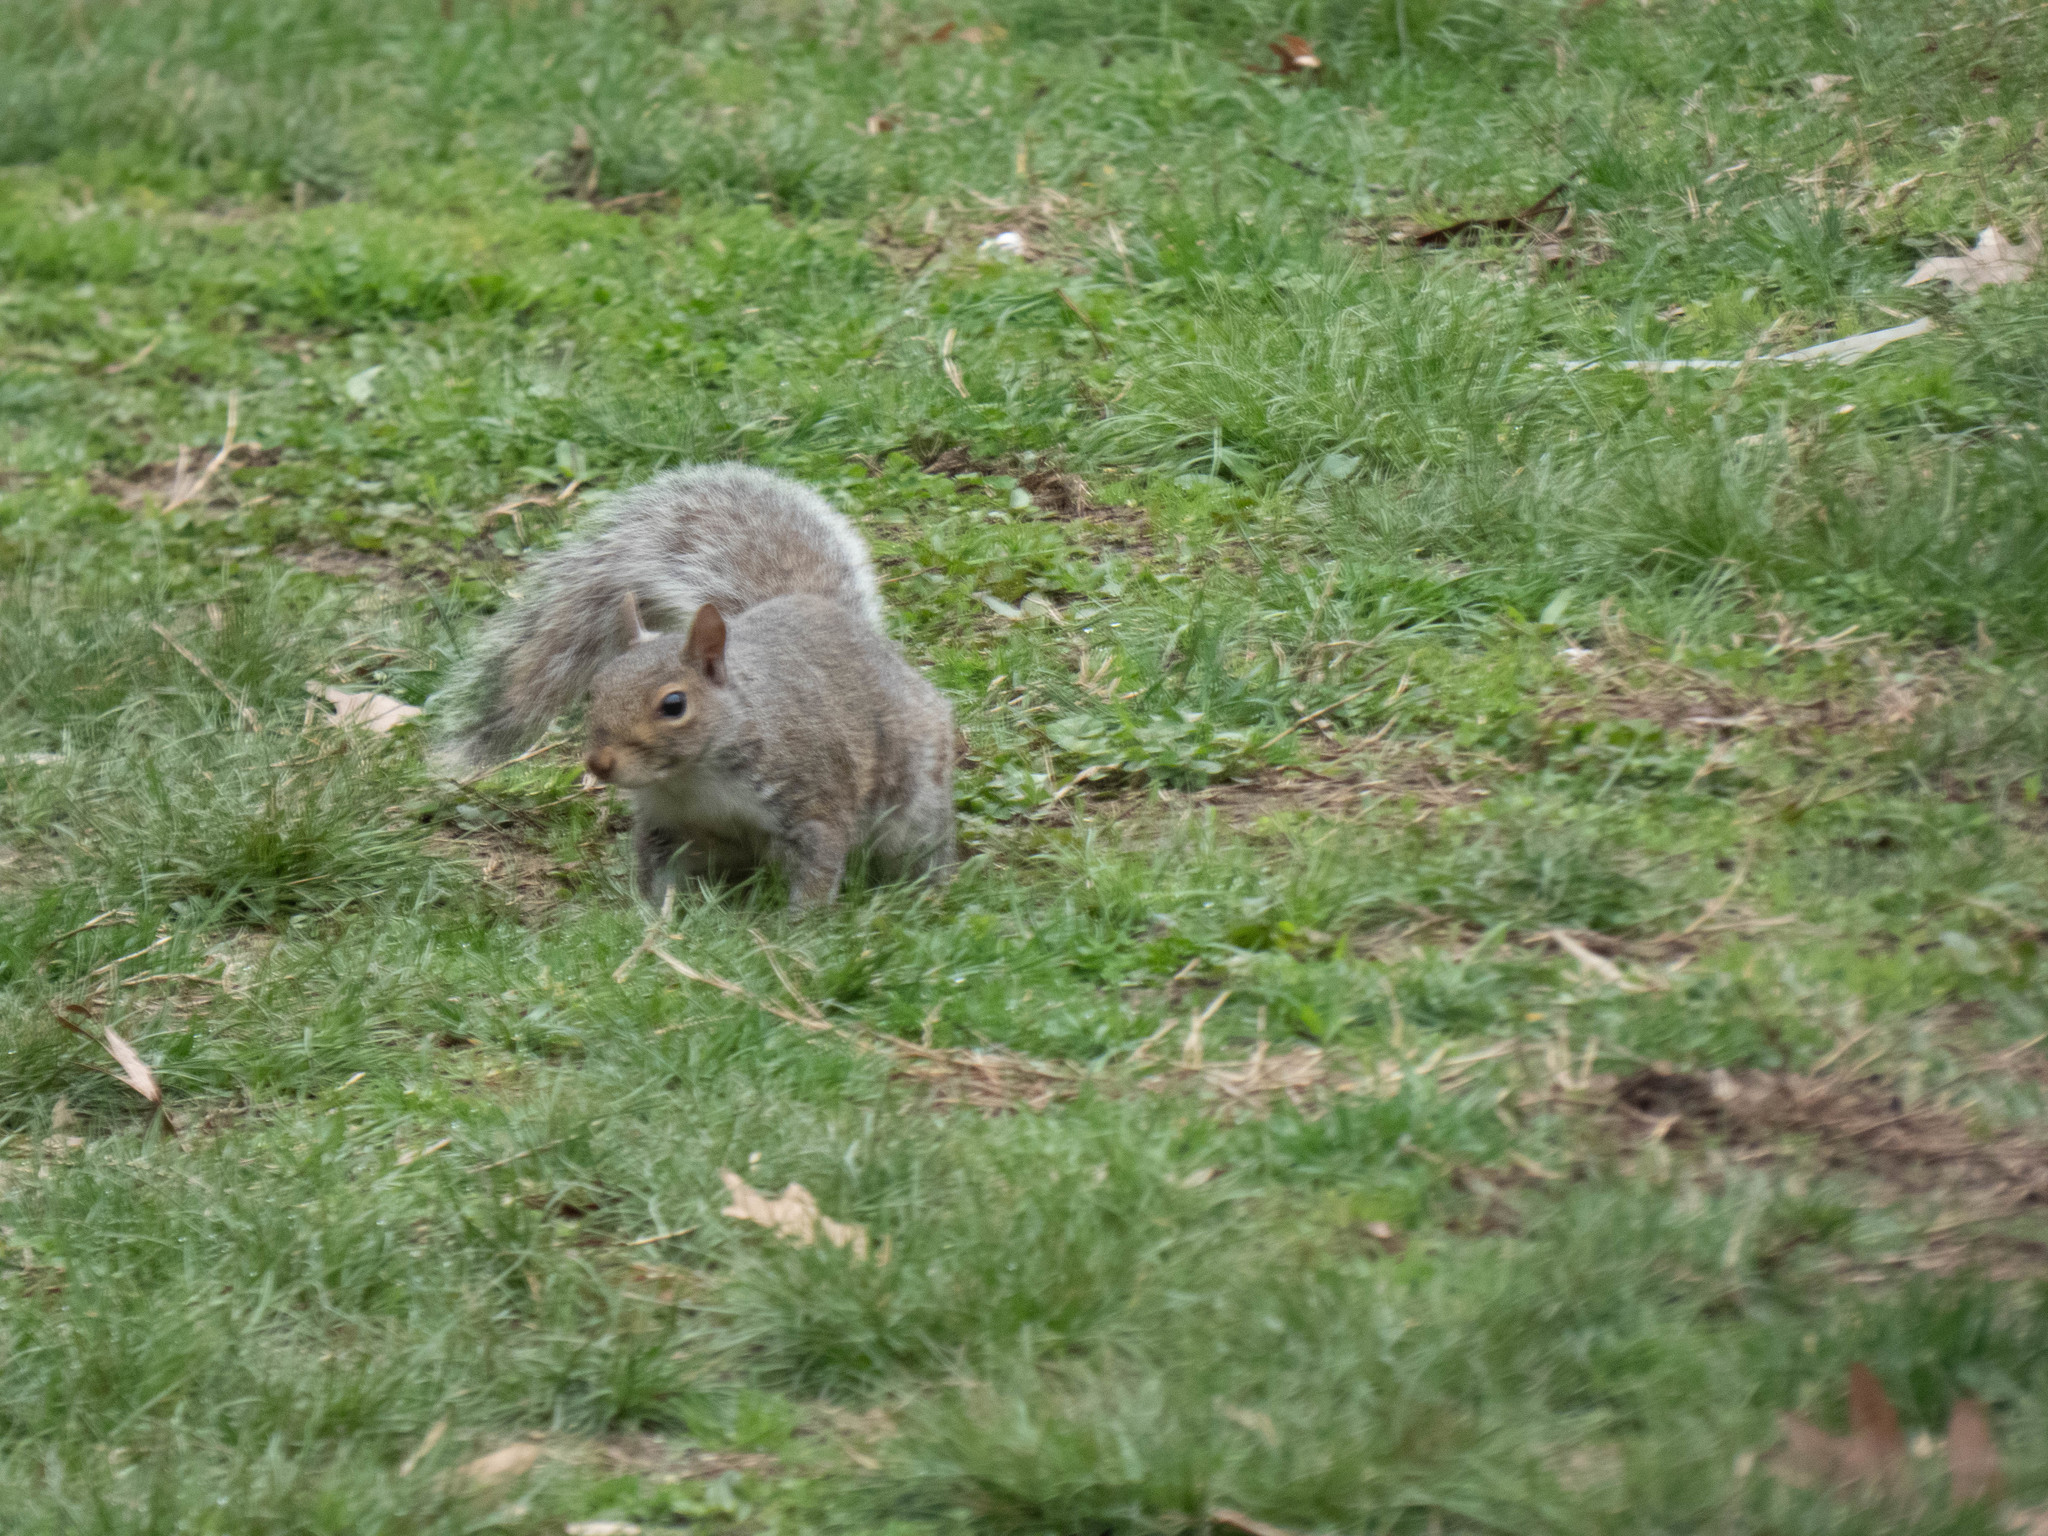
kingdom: Animalia
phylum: Chordata
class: Mammalia
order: Rodentia
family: Sciuridae
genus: Sciurus
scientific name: Sciurus carolinensis
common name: Eastern gray squirrel
